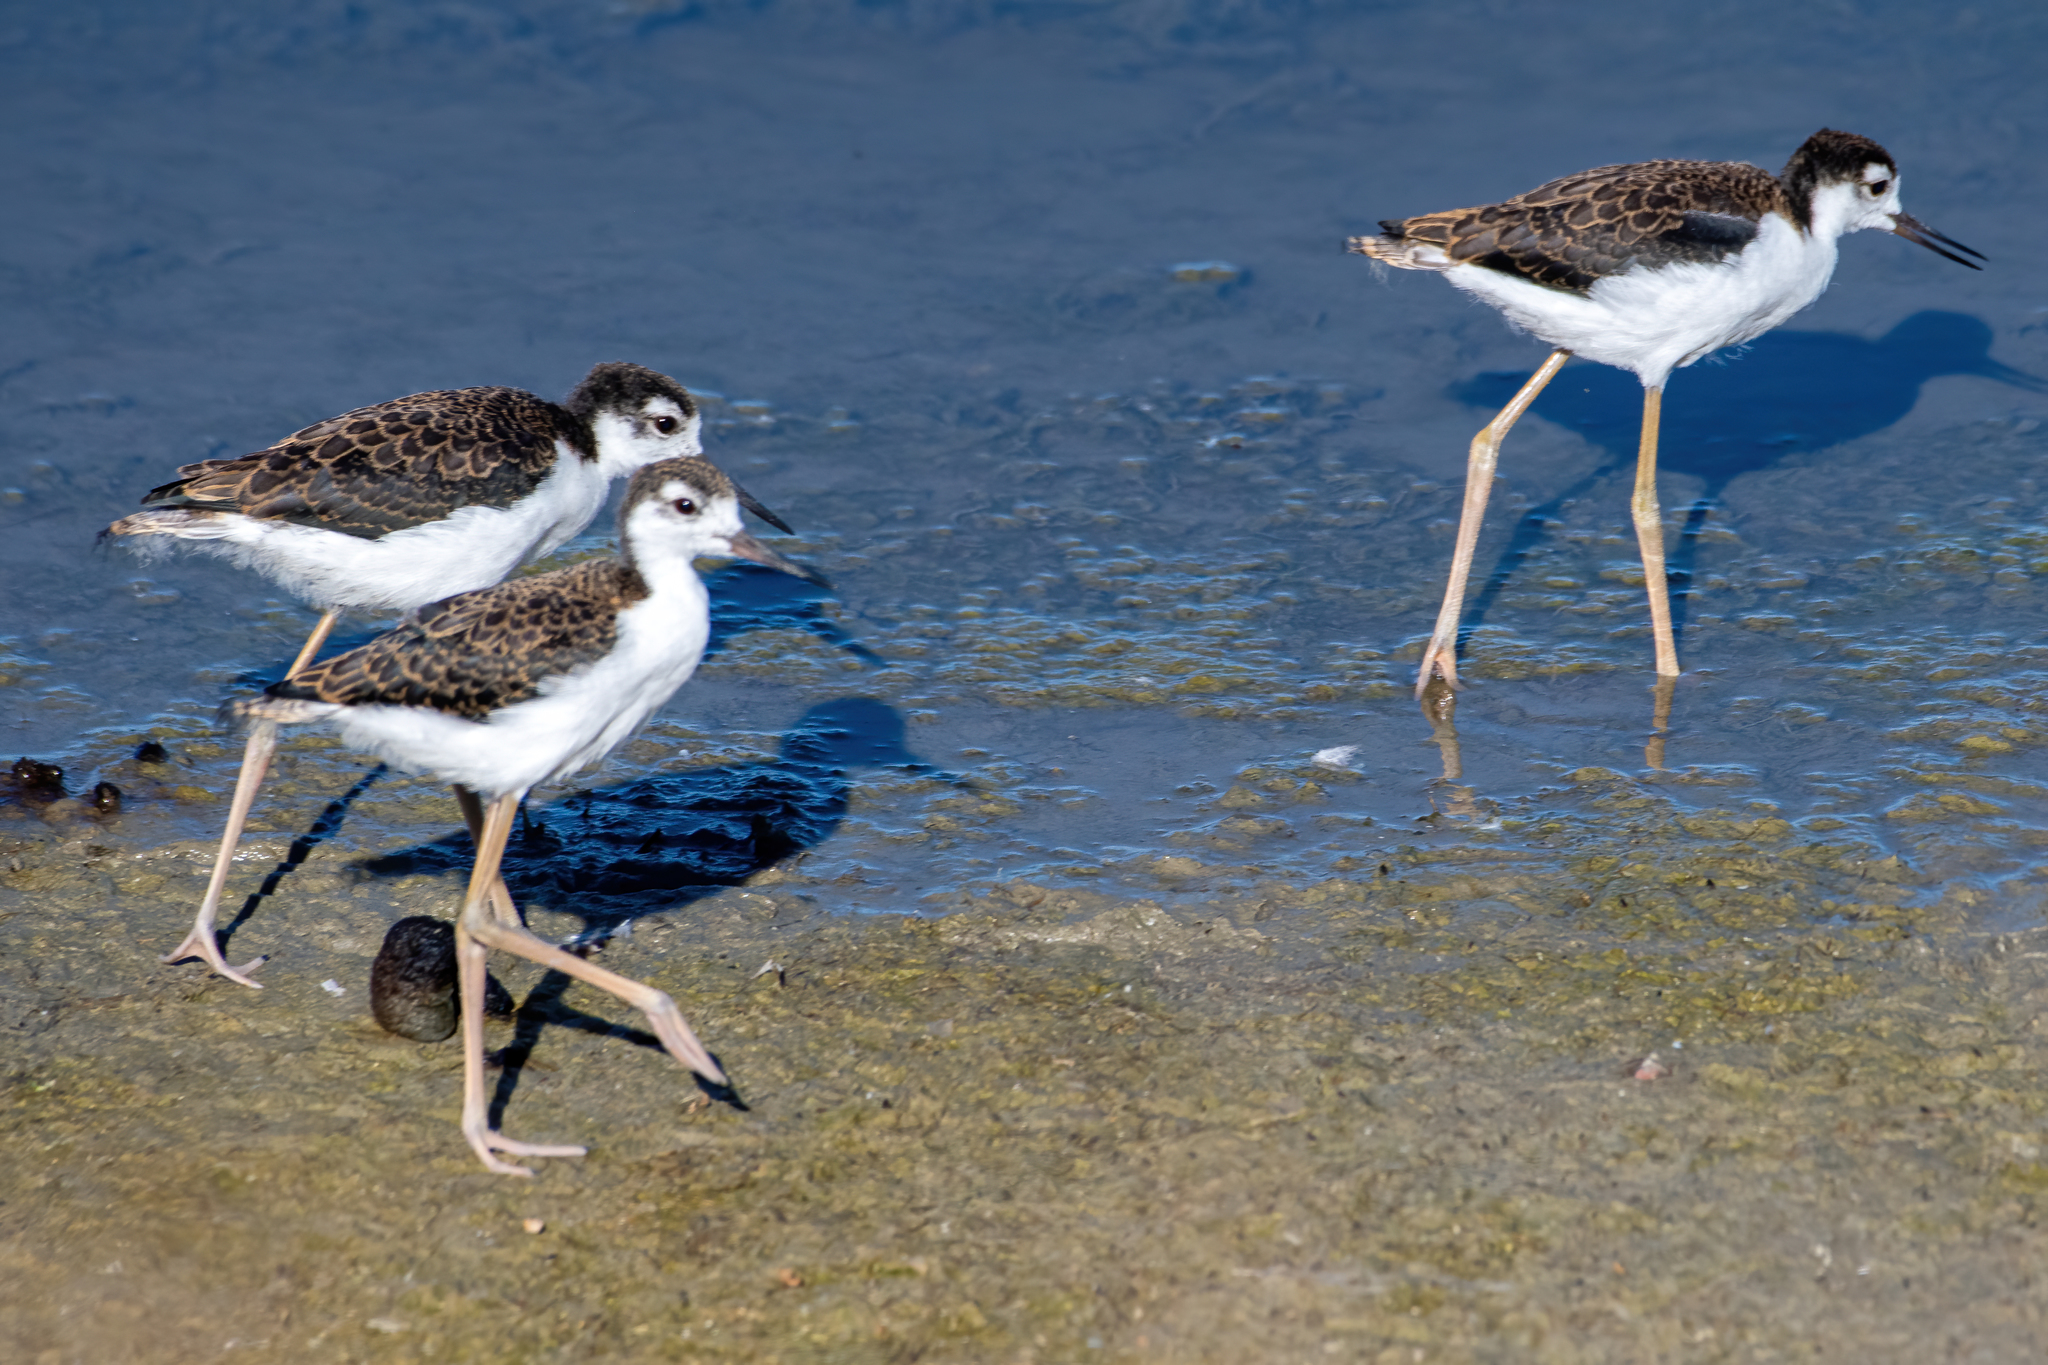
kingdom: Animalia
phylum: Chordata
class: Aves
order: Charadriiformes
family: Recurvirostridae
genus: Himantopus
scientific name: Himantopus mexicanus
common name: Black-necked stilt
